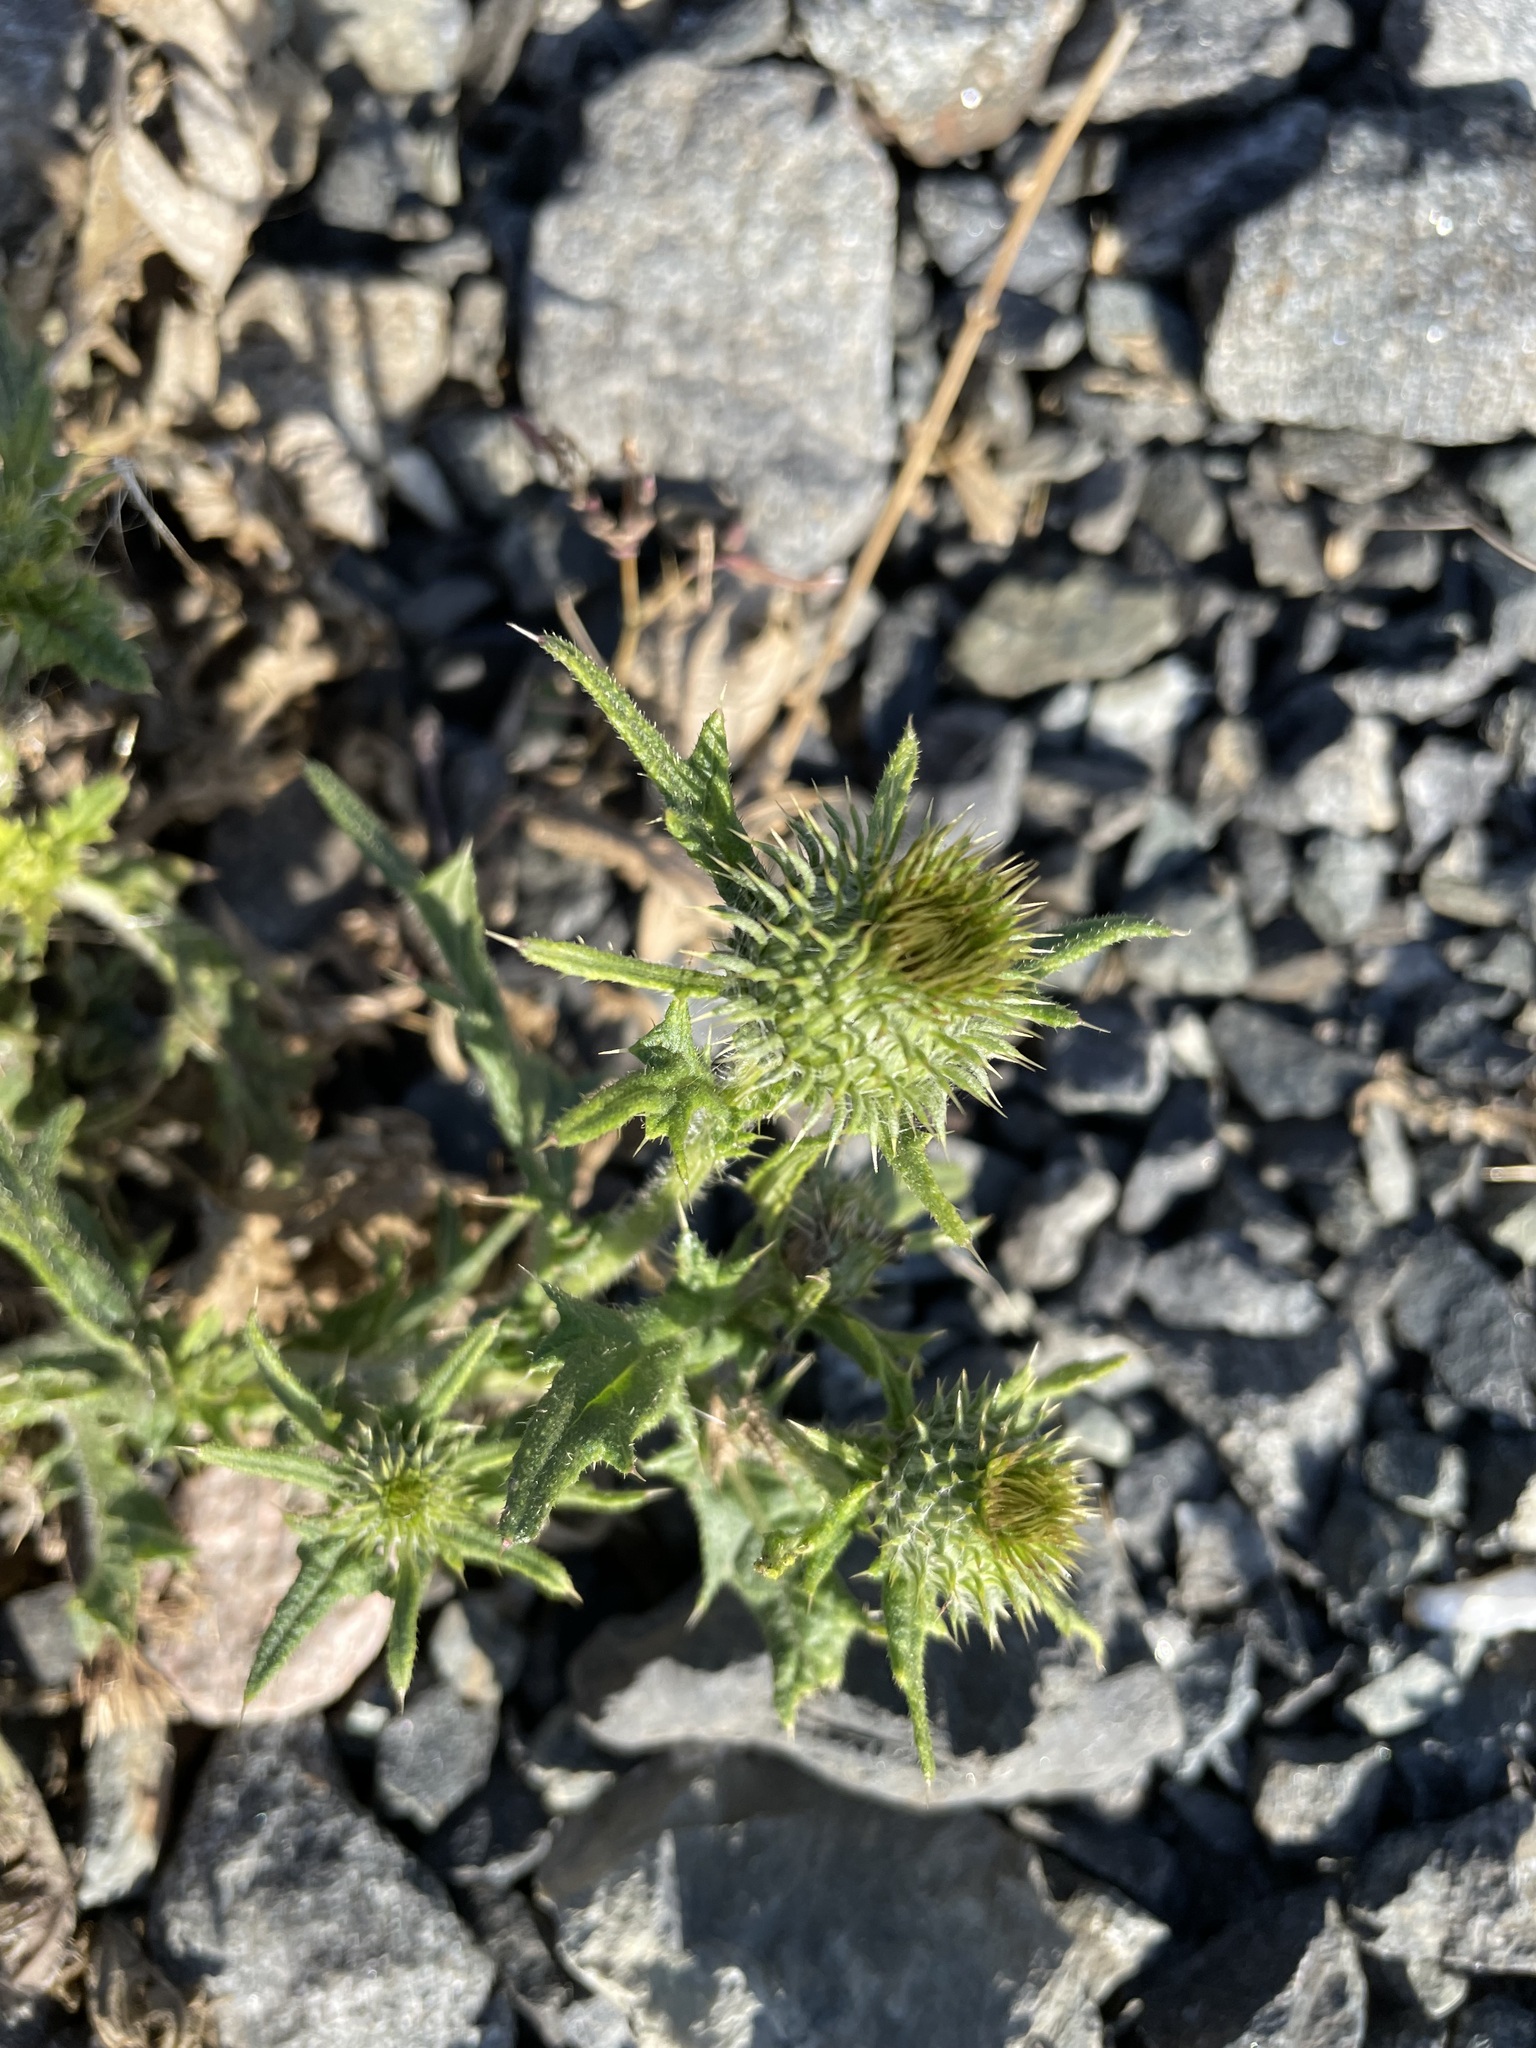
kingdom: Plantae
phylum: Tracheophyta
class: Magnoliopsida
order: Asterales
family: Asteraceae
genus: Cirsium
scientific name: Cirsium vulgare
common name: Bull thistle
